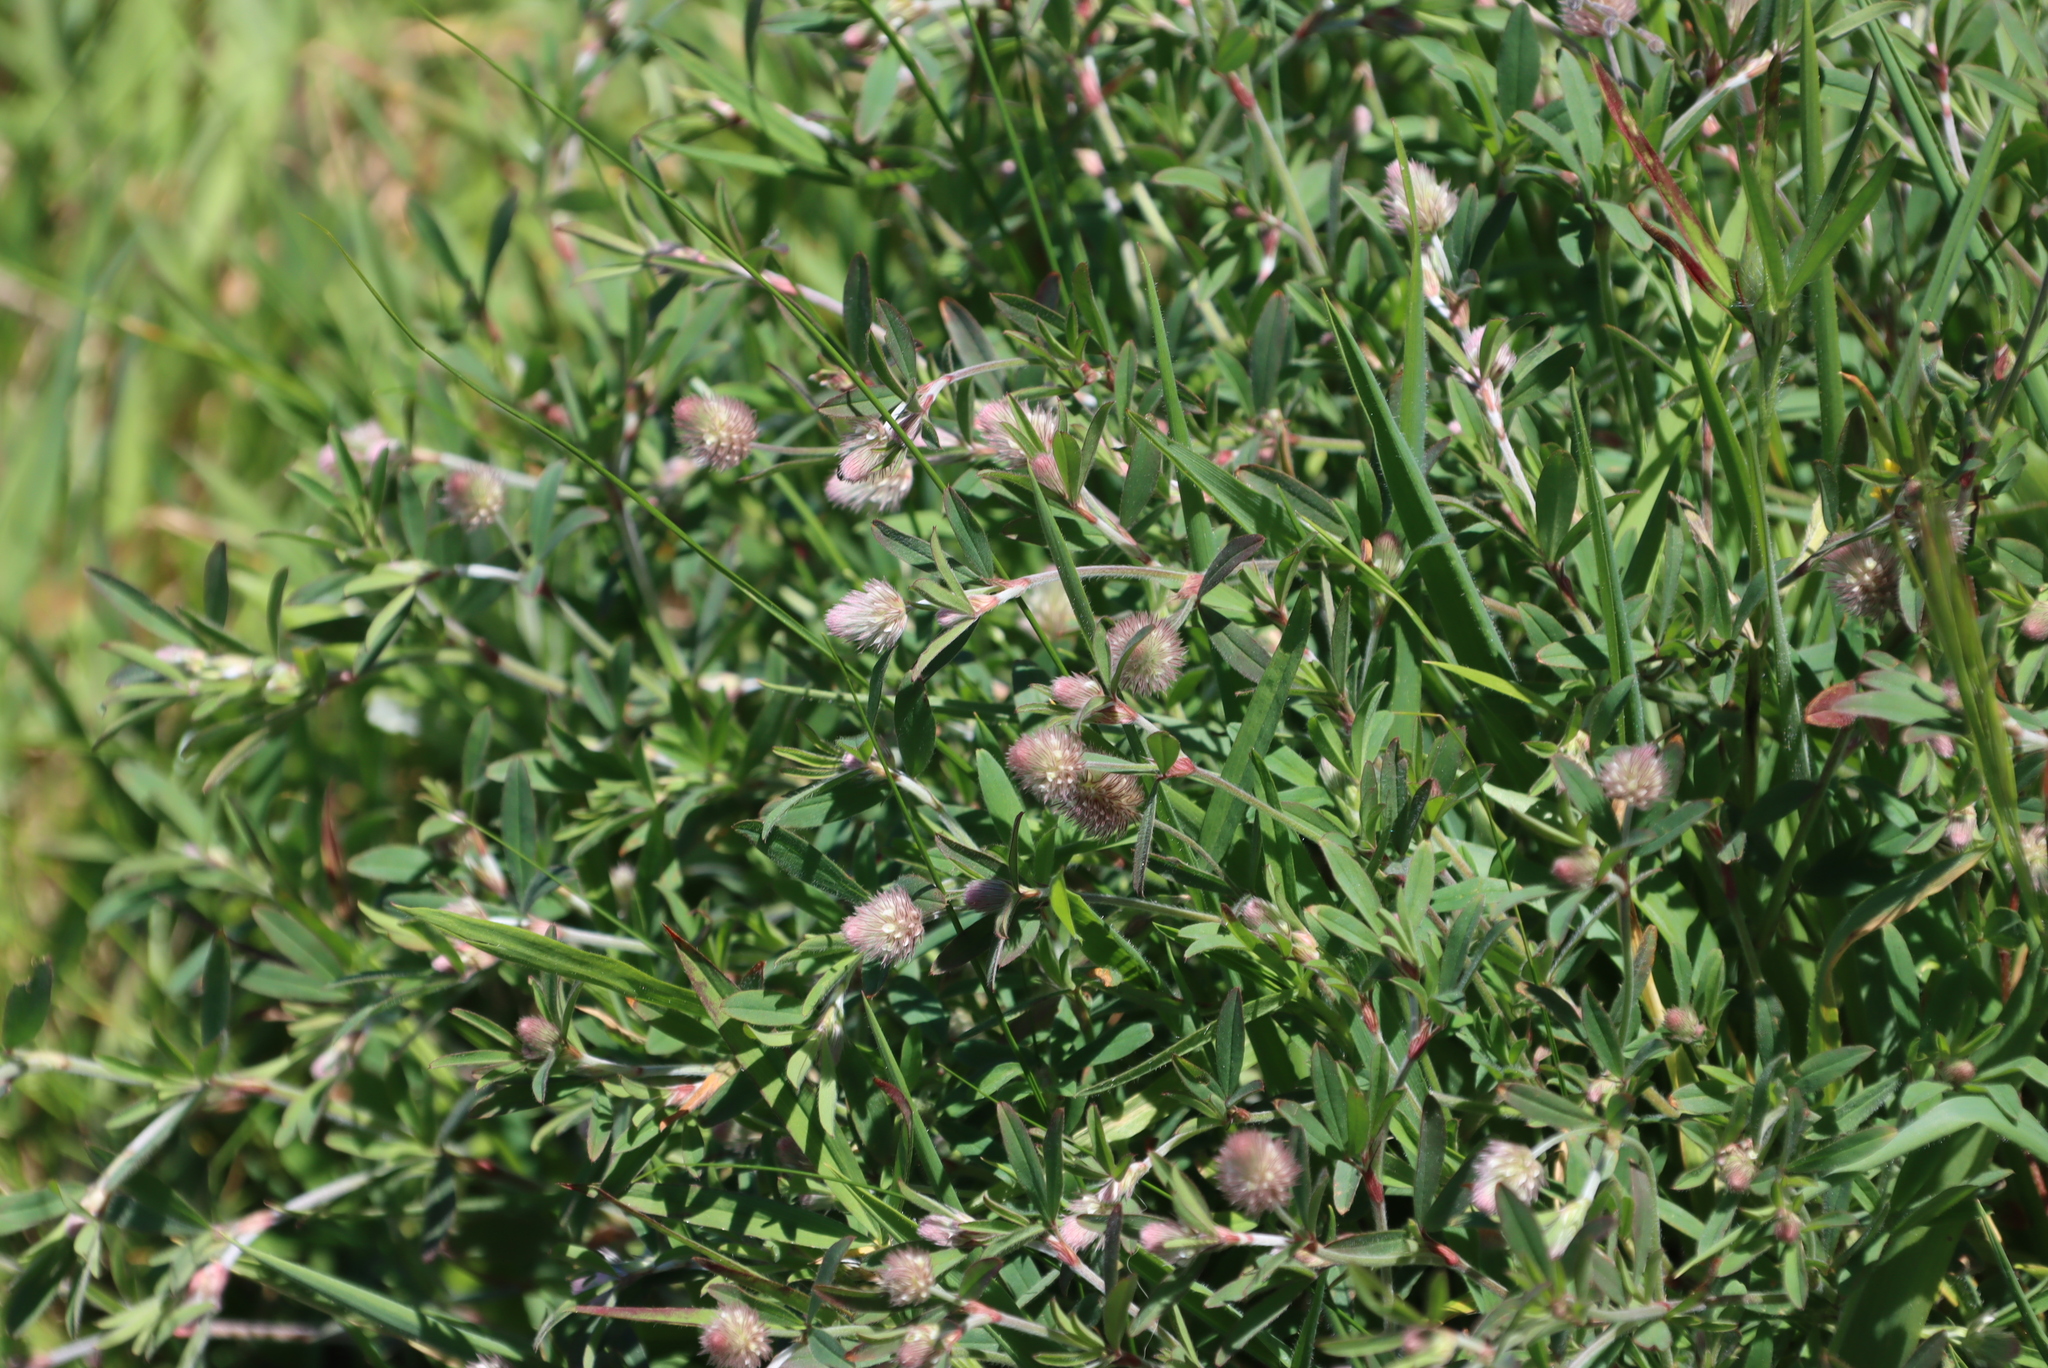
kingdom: Plantae
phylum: Tracheophyta
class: Magnoliopsida
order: Fabales
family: Fabaceae
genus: Trifolium
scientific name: Trifolium arvense
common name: Hare's-foot clover
